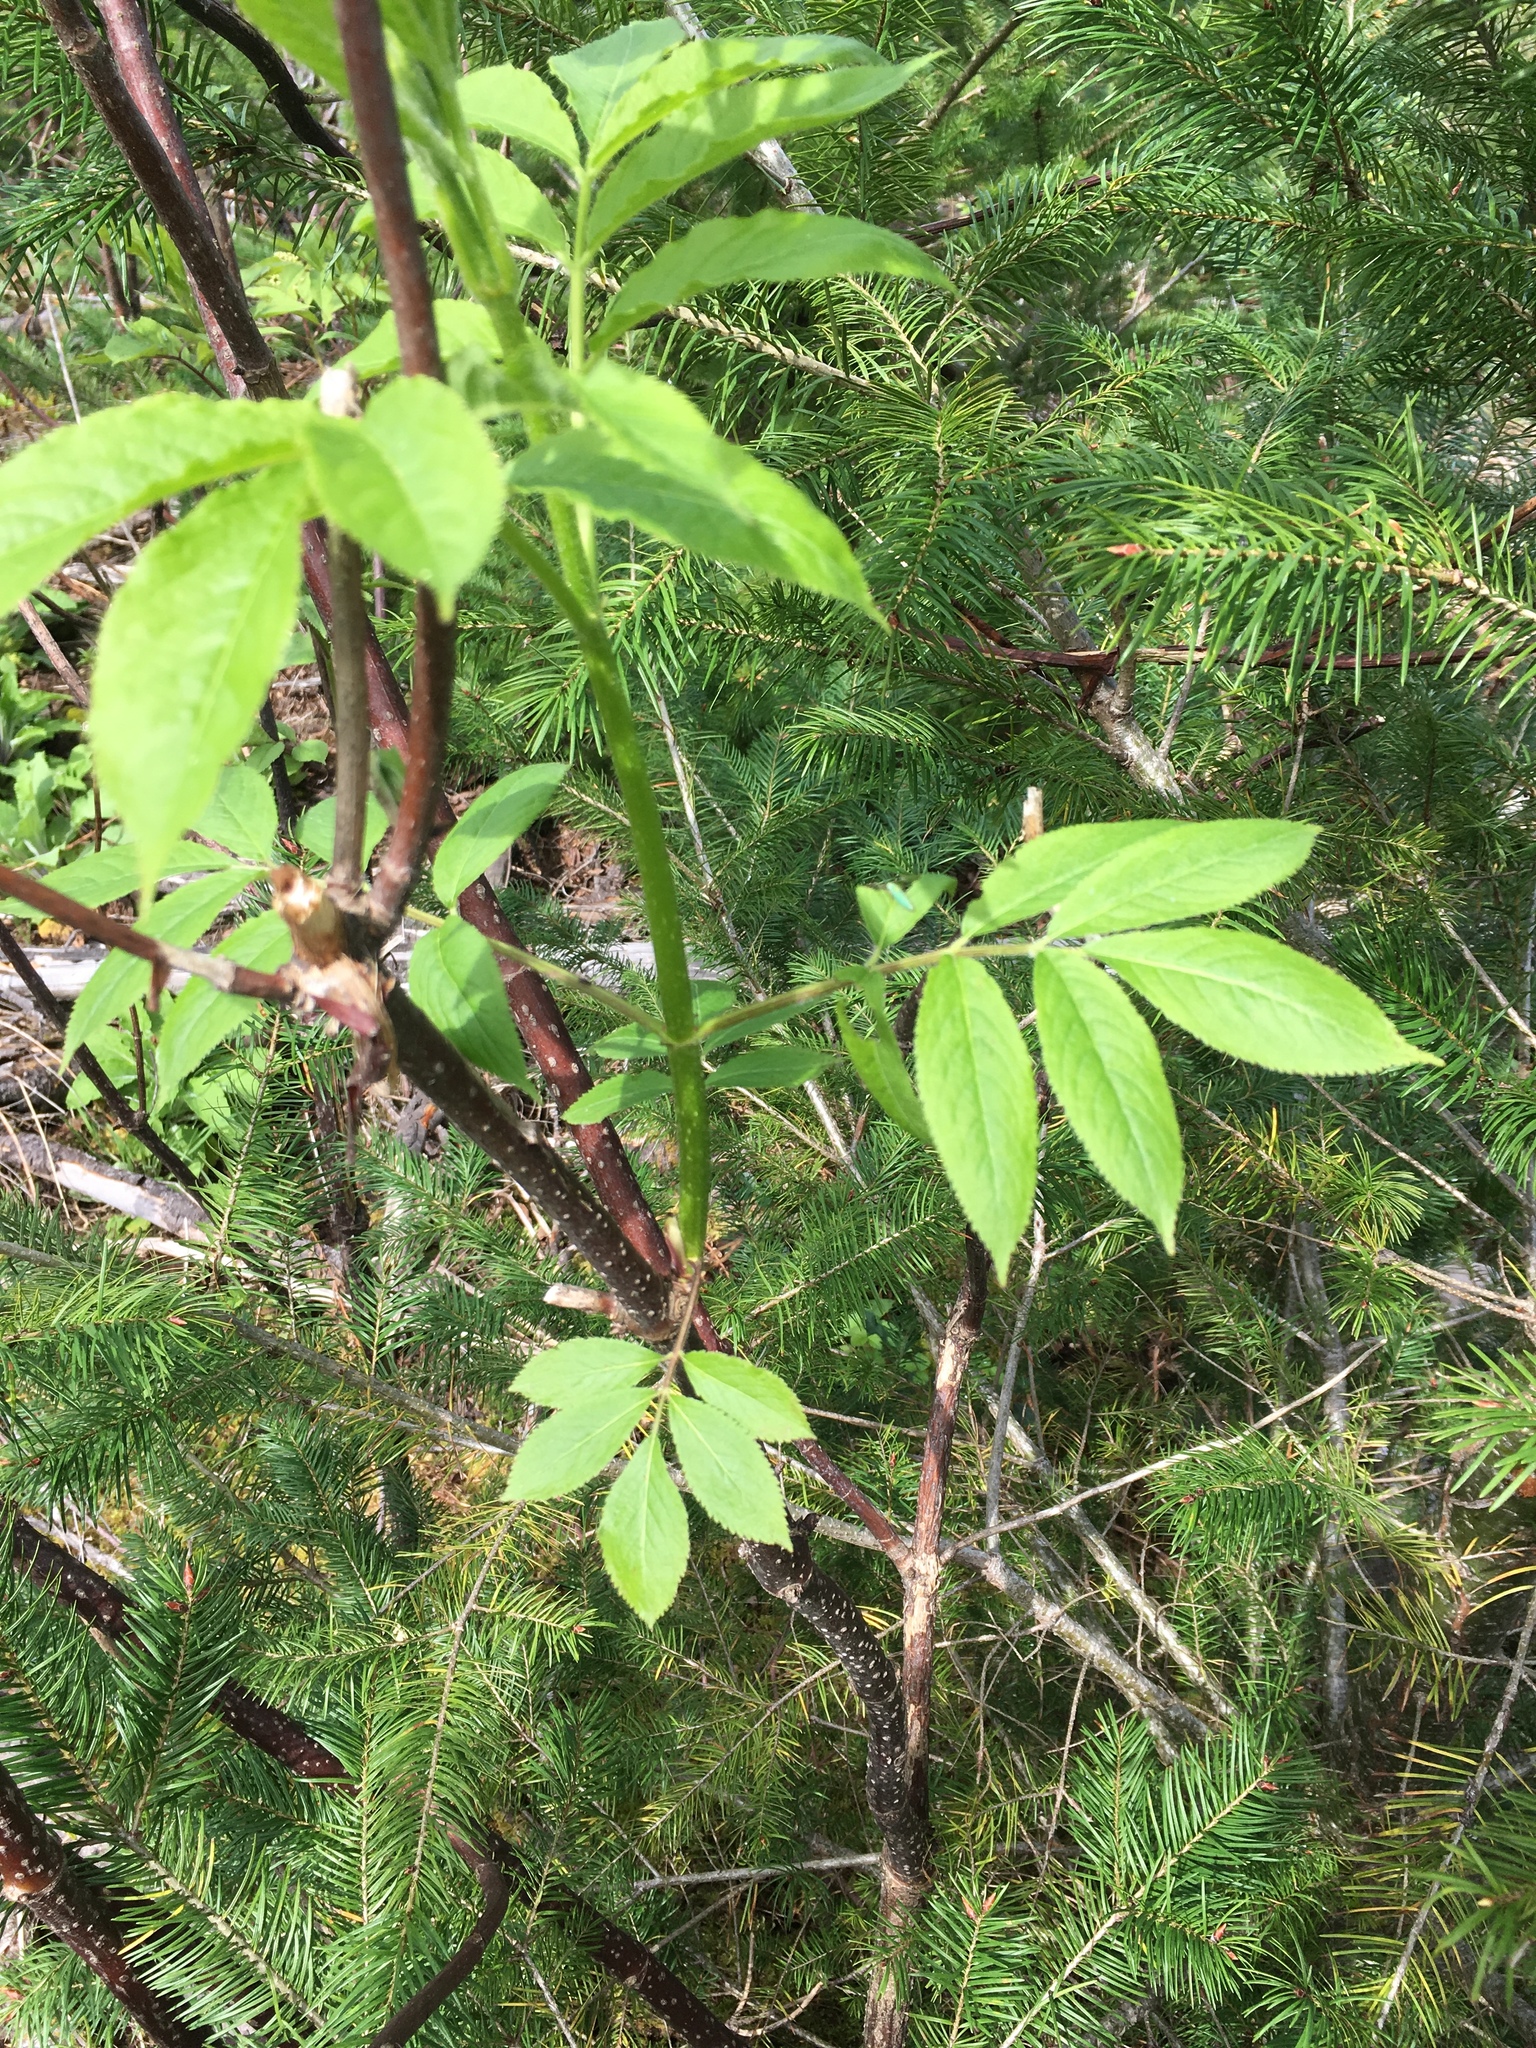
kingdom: Plantae
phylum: Tracheophyta
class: Magnoliopsida
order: Dipsacales
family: Viburnaceae
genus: Sambucus
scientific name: Sambucus racemosa
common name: Red-berried elder
